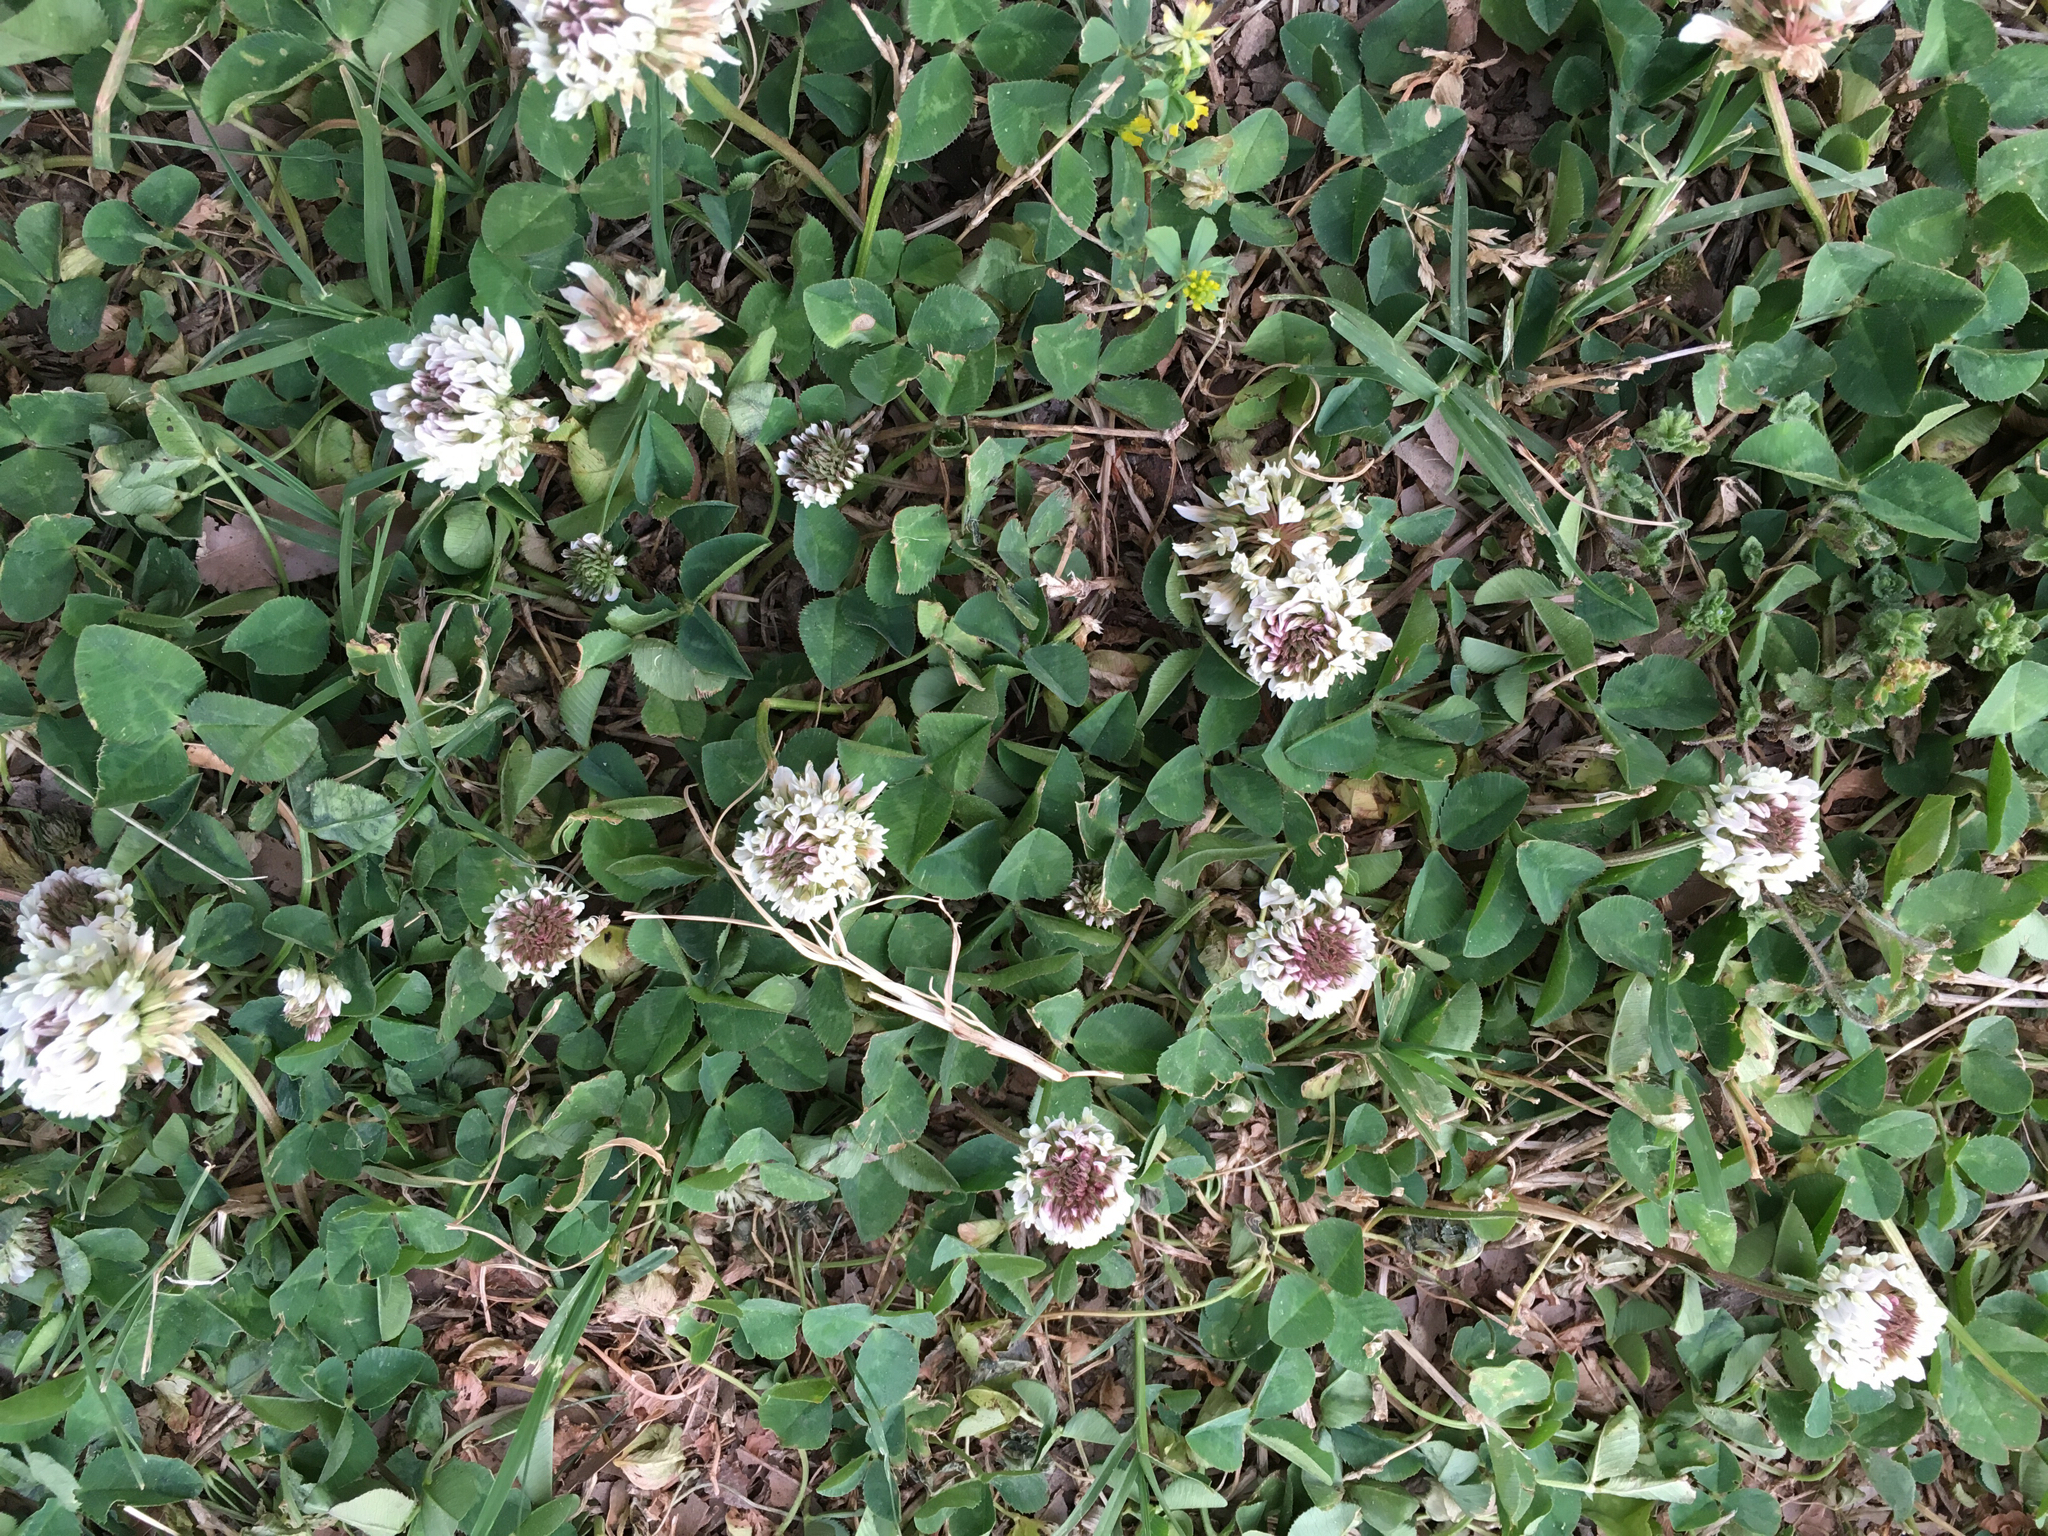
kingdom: Plantae
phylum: Tracheophyta
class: Magnoliopsida
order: Fabales
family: Fabaceae
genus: Trifolium
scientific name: Trifolium repens
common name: White clover
